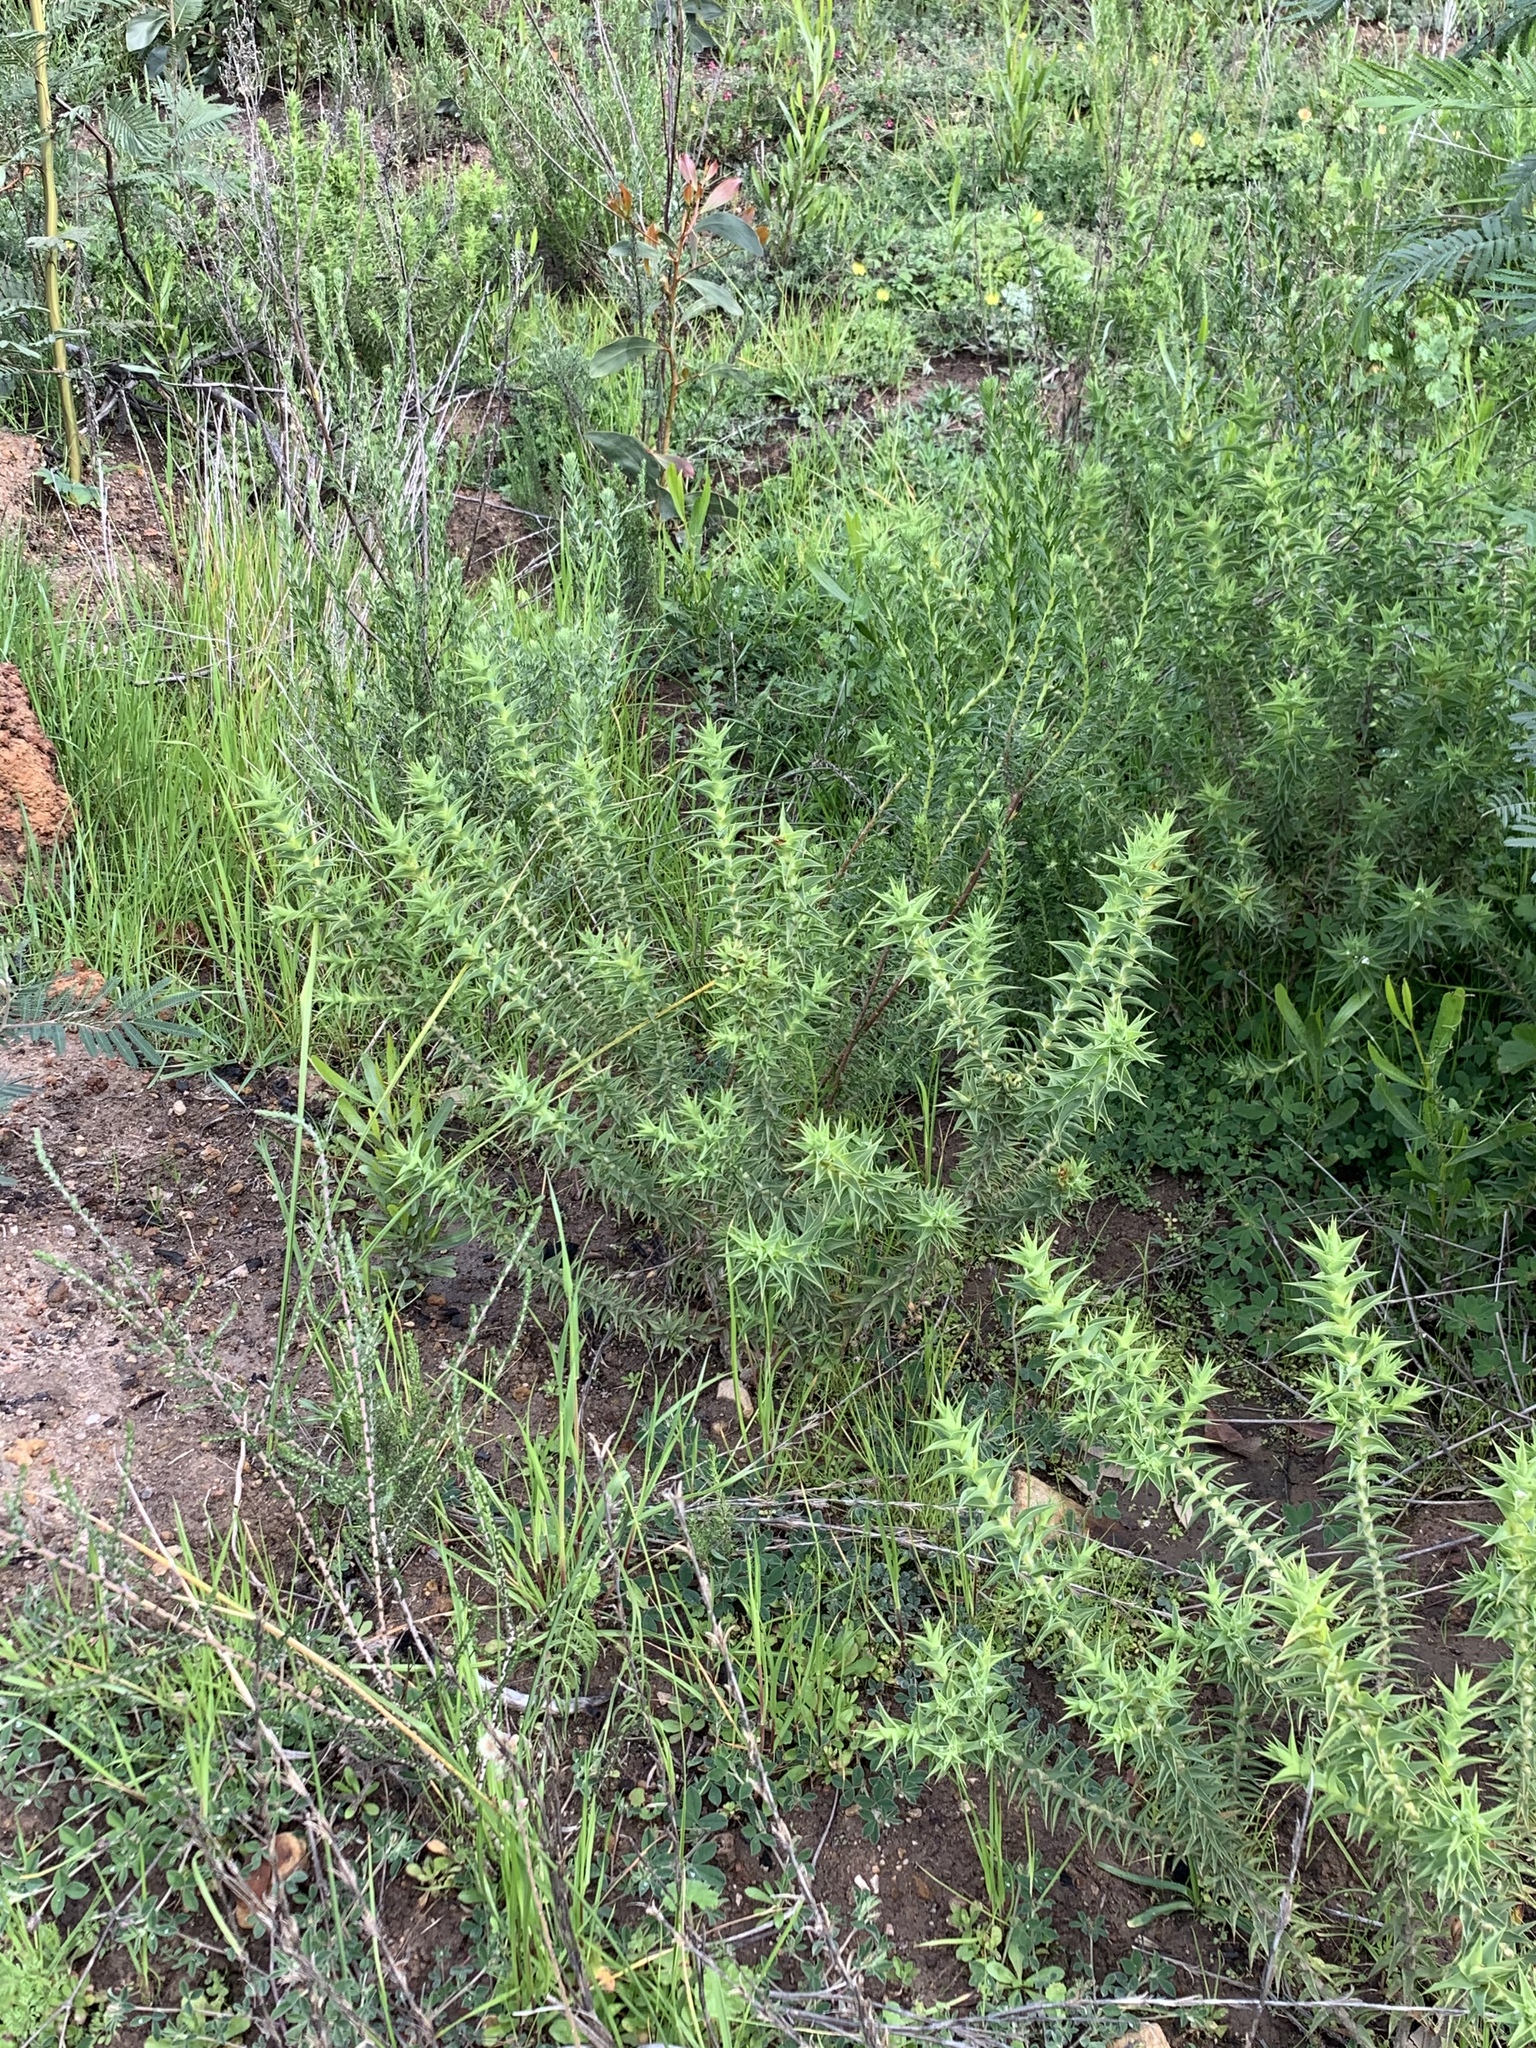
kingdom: Plantae
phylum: Tracheophyta
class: Magnoliopsida
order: Fabales
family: Fabaceae
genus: Aspalathus
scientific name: Aspalathus cordata
